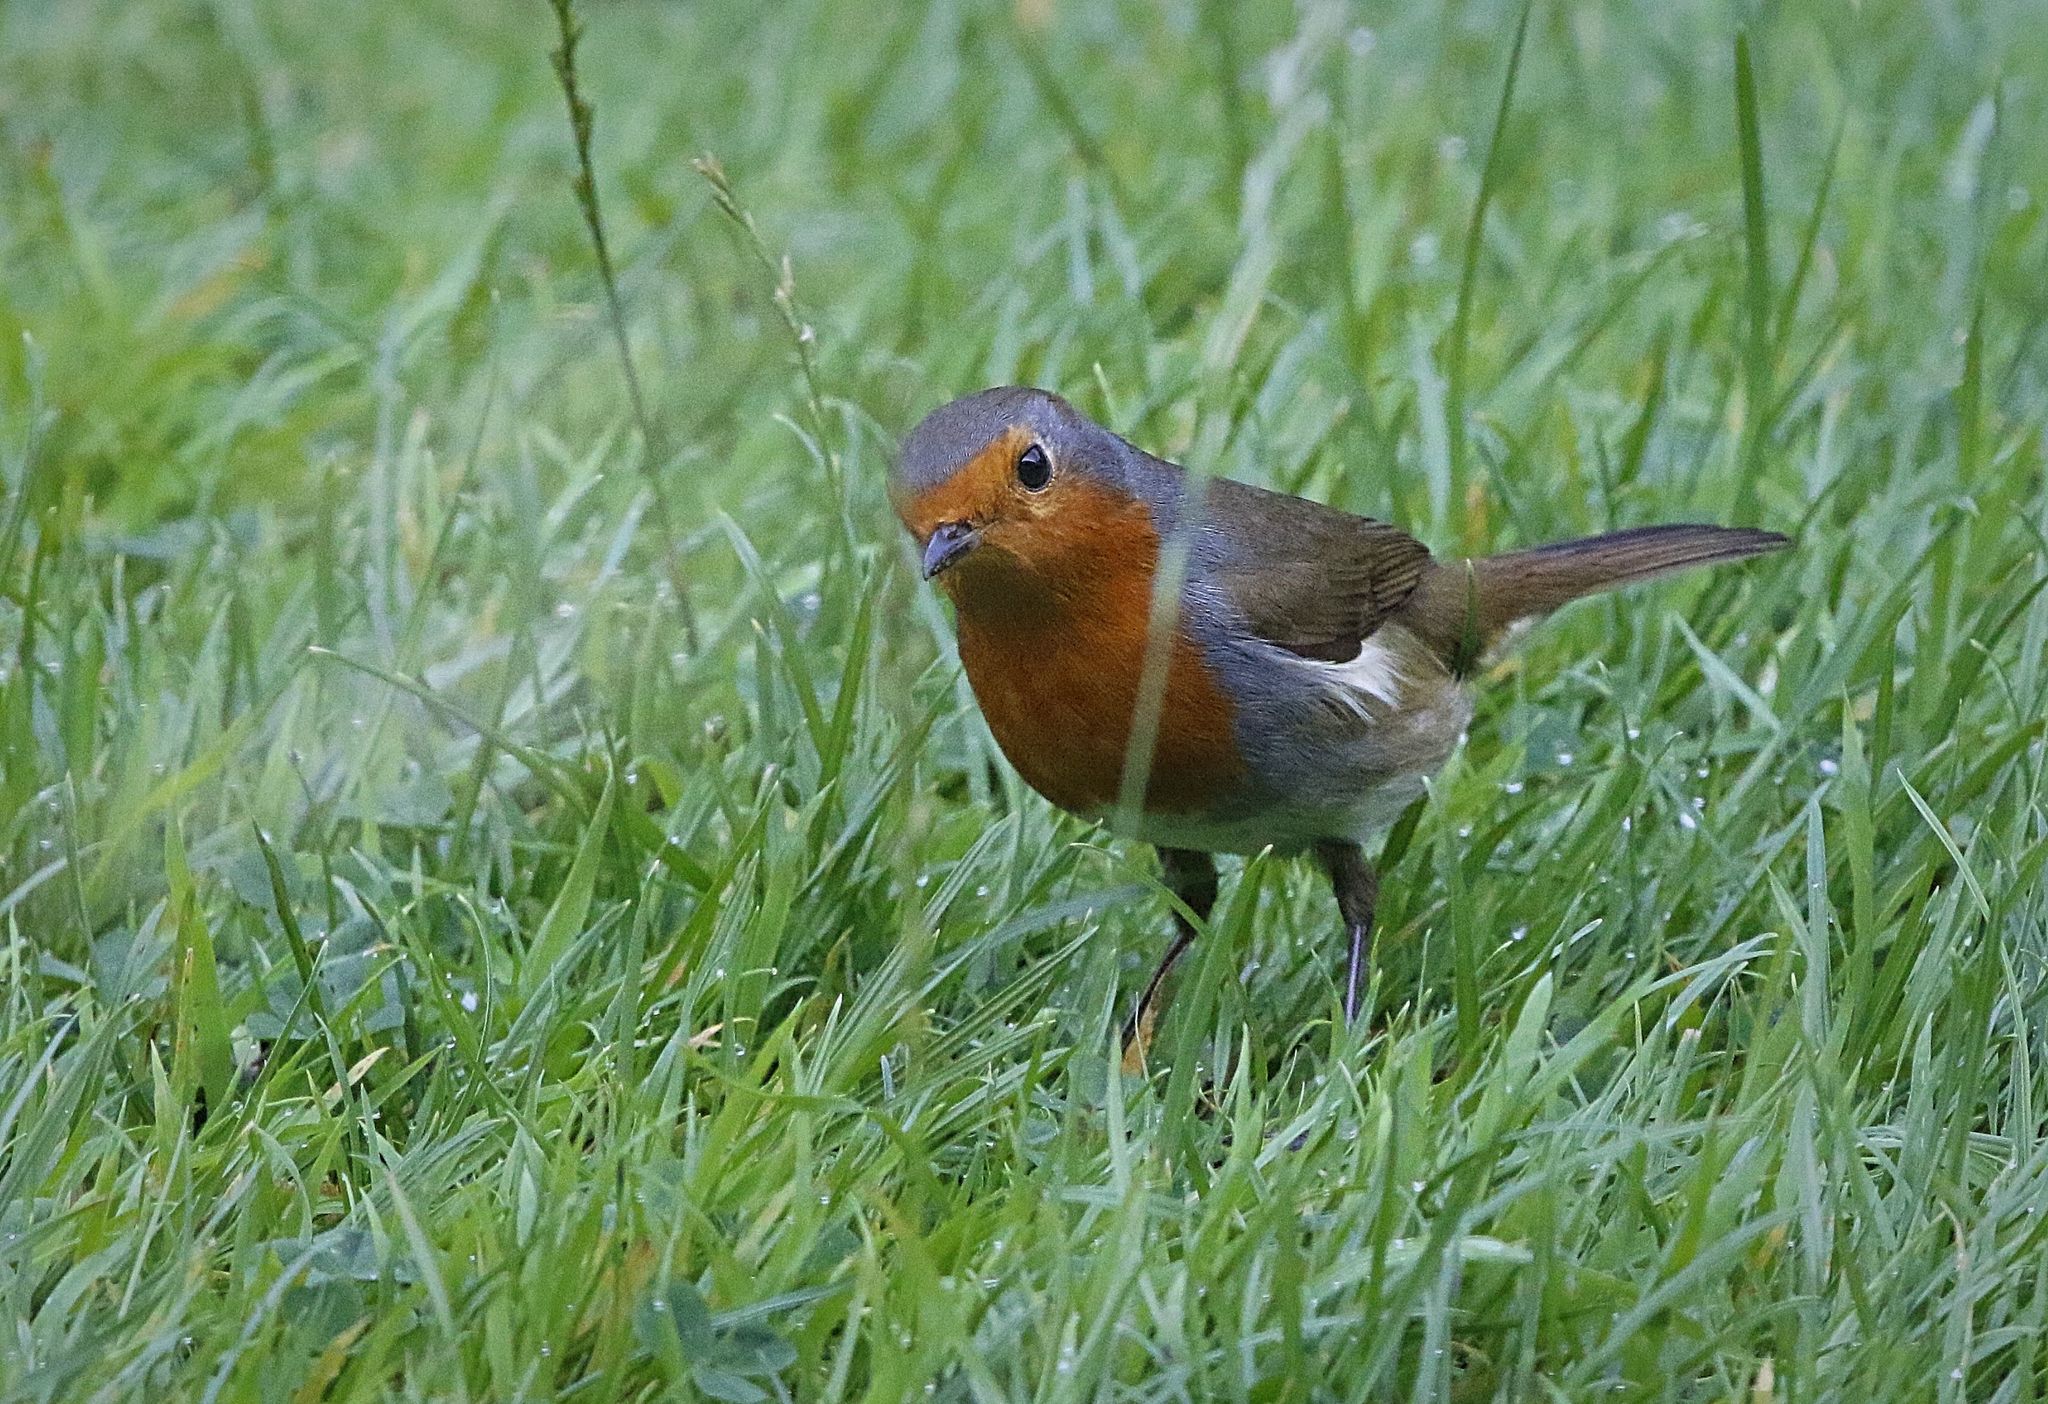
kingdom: Animalia
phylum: Chordata
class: Aves
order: Passeriformes
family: Muscicapidae
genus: Erithacus
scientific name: Erithacus rubecula
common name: European robin
